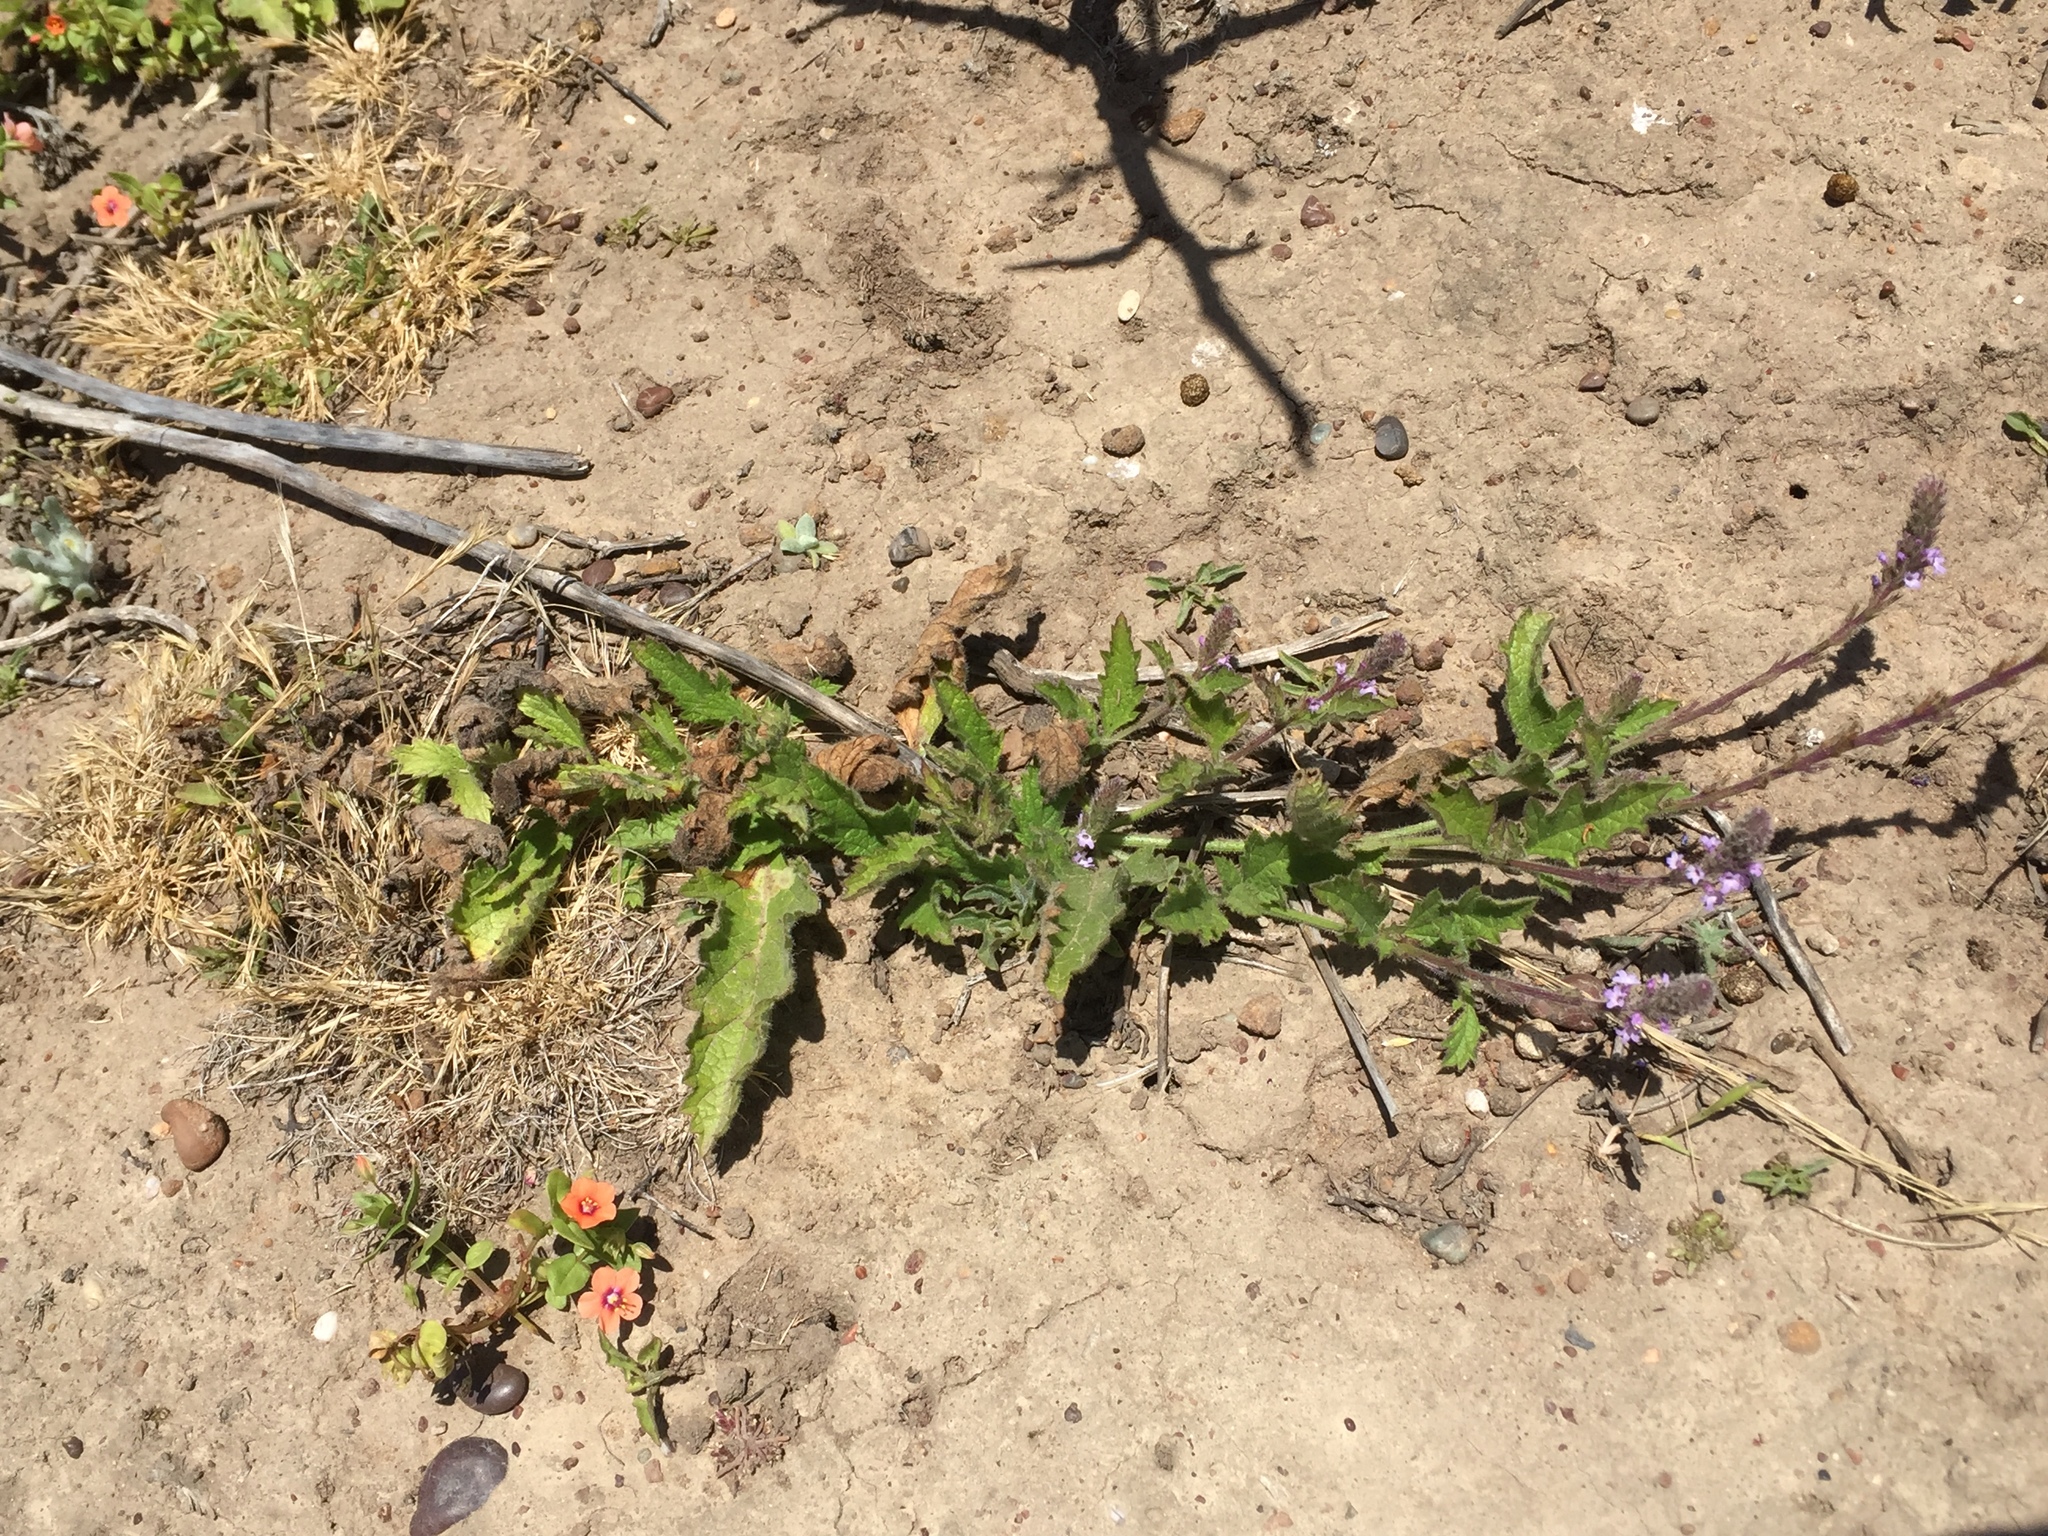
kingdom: Plantae
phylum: Tracheophyta
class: Magnoliopsida
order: Lamiales
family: Verbenaceae
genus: Verbena
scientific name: Verbena lasiostachys
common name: Vervain
